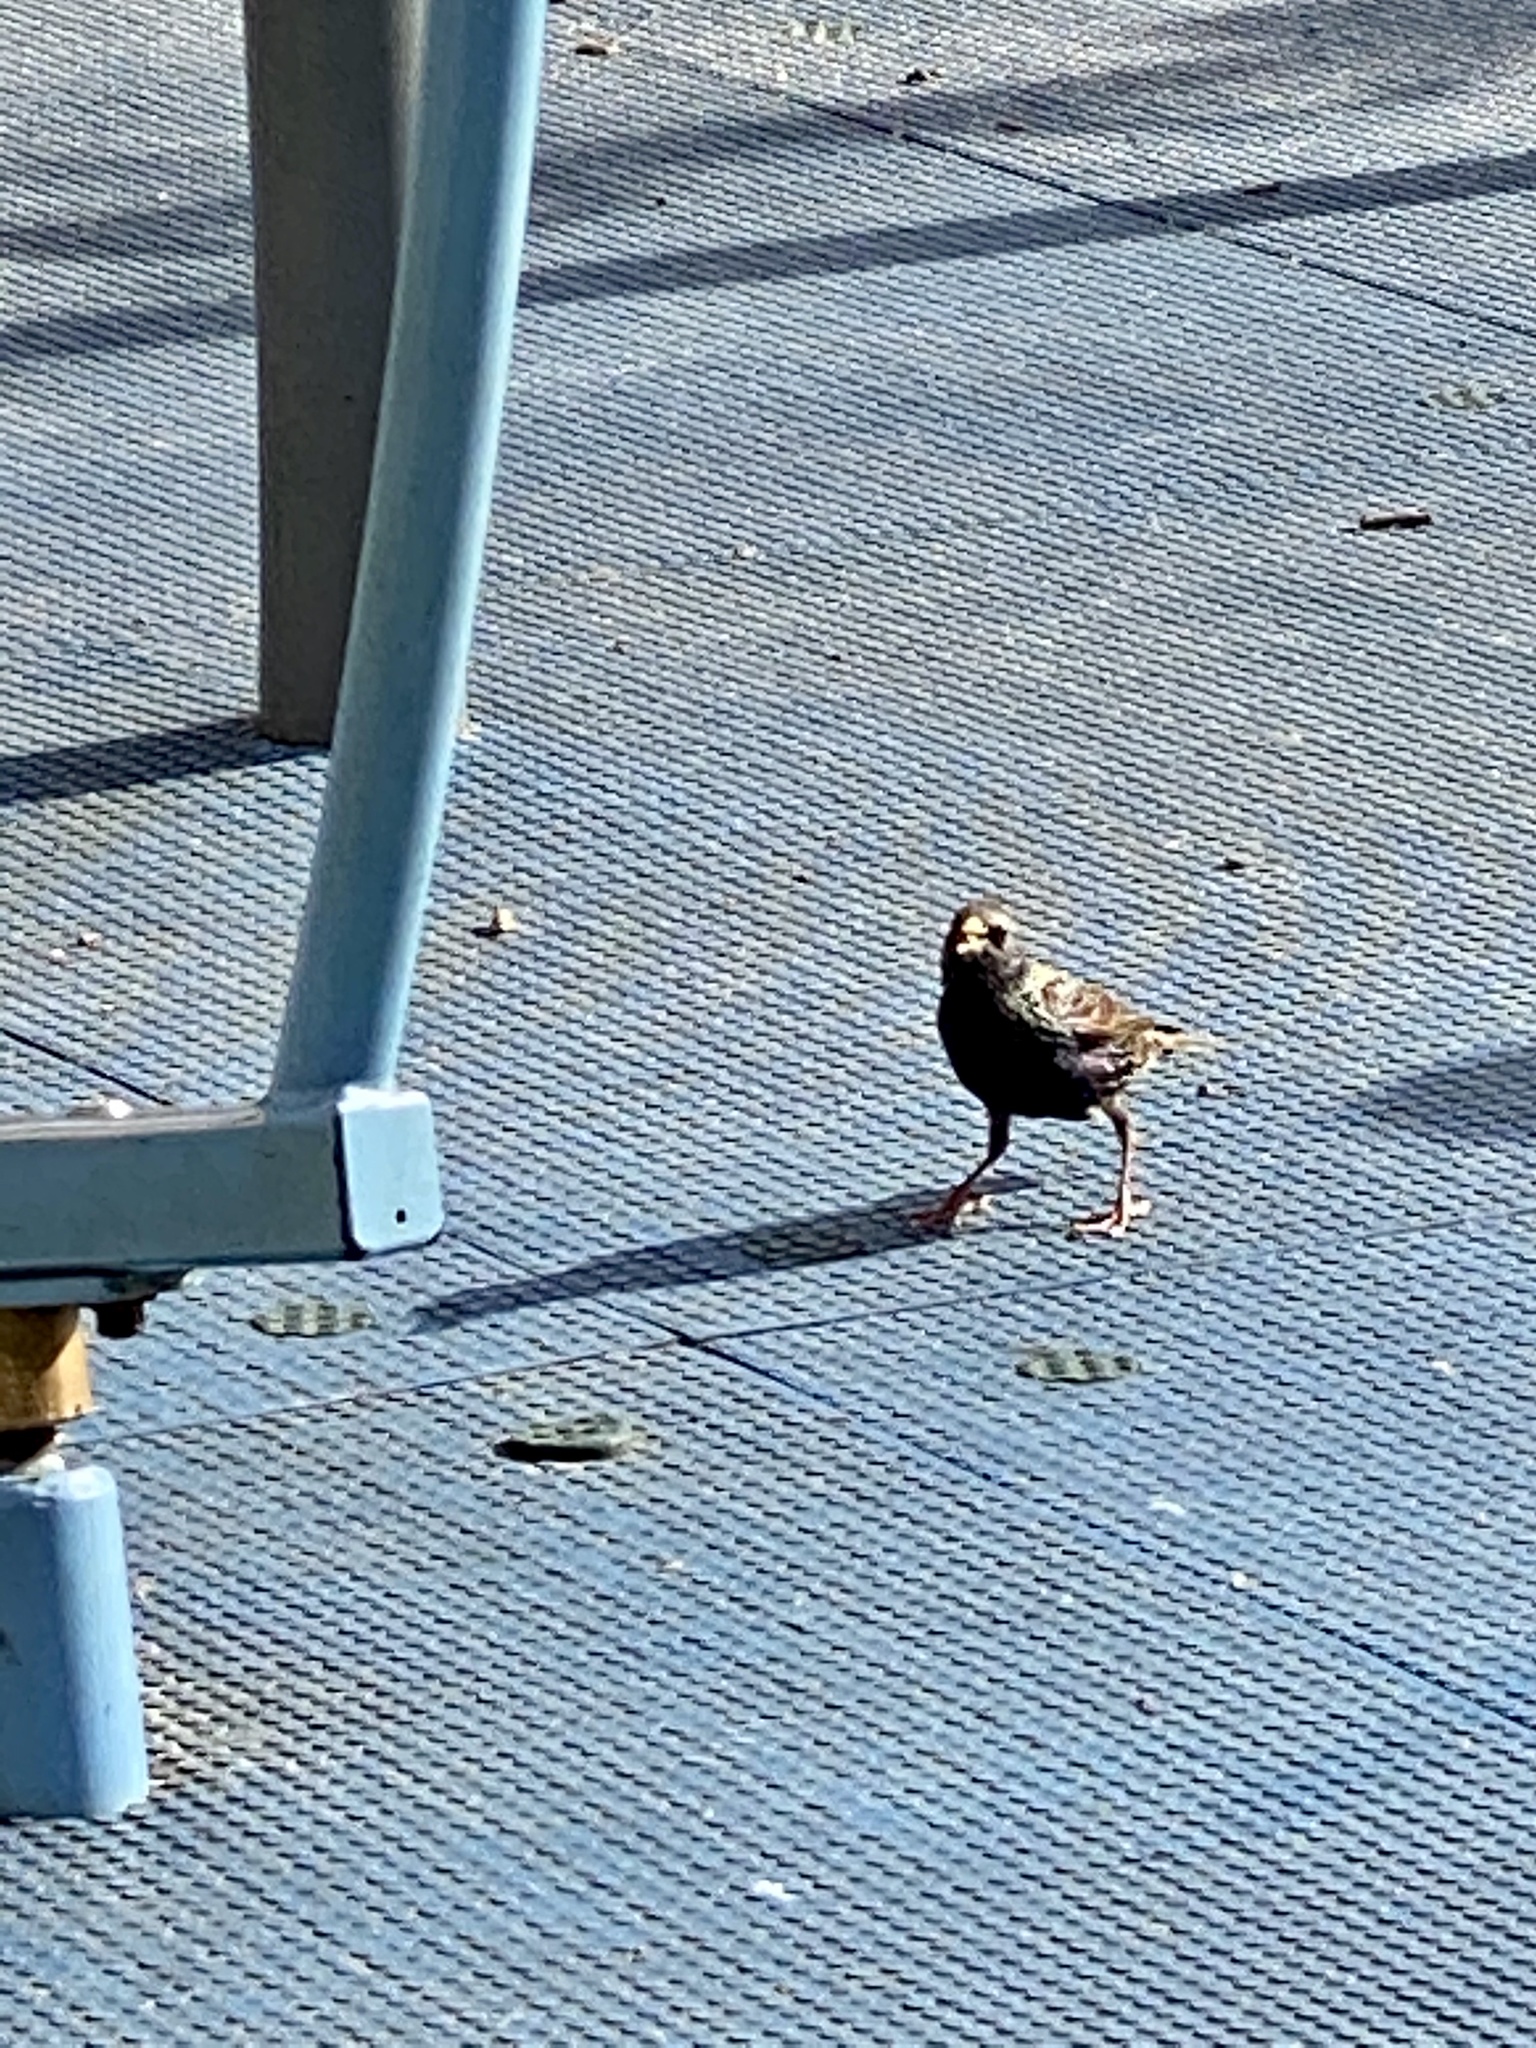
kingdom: Animalia
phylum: Chordata
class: Aves
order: Passeriformes
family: Sturnidae
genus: Sturnus
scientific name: Sturnus vulgaris
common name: Common starling
